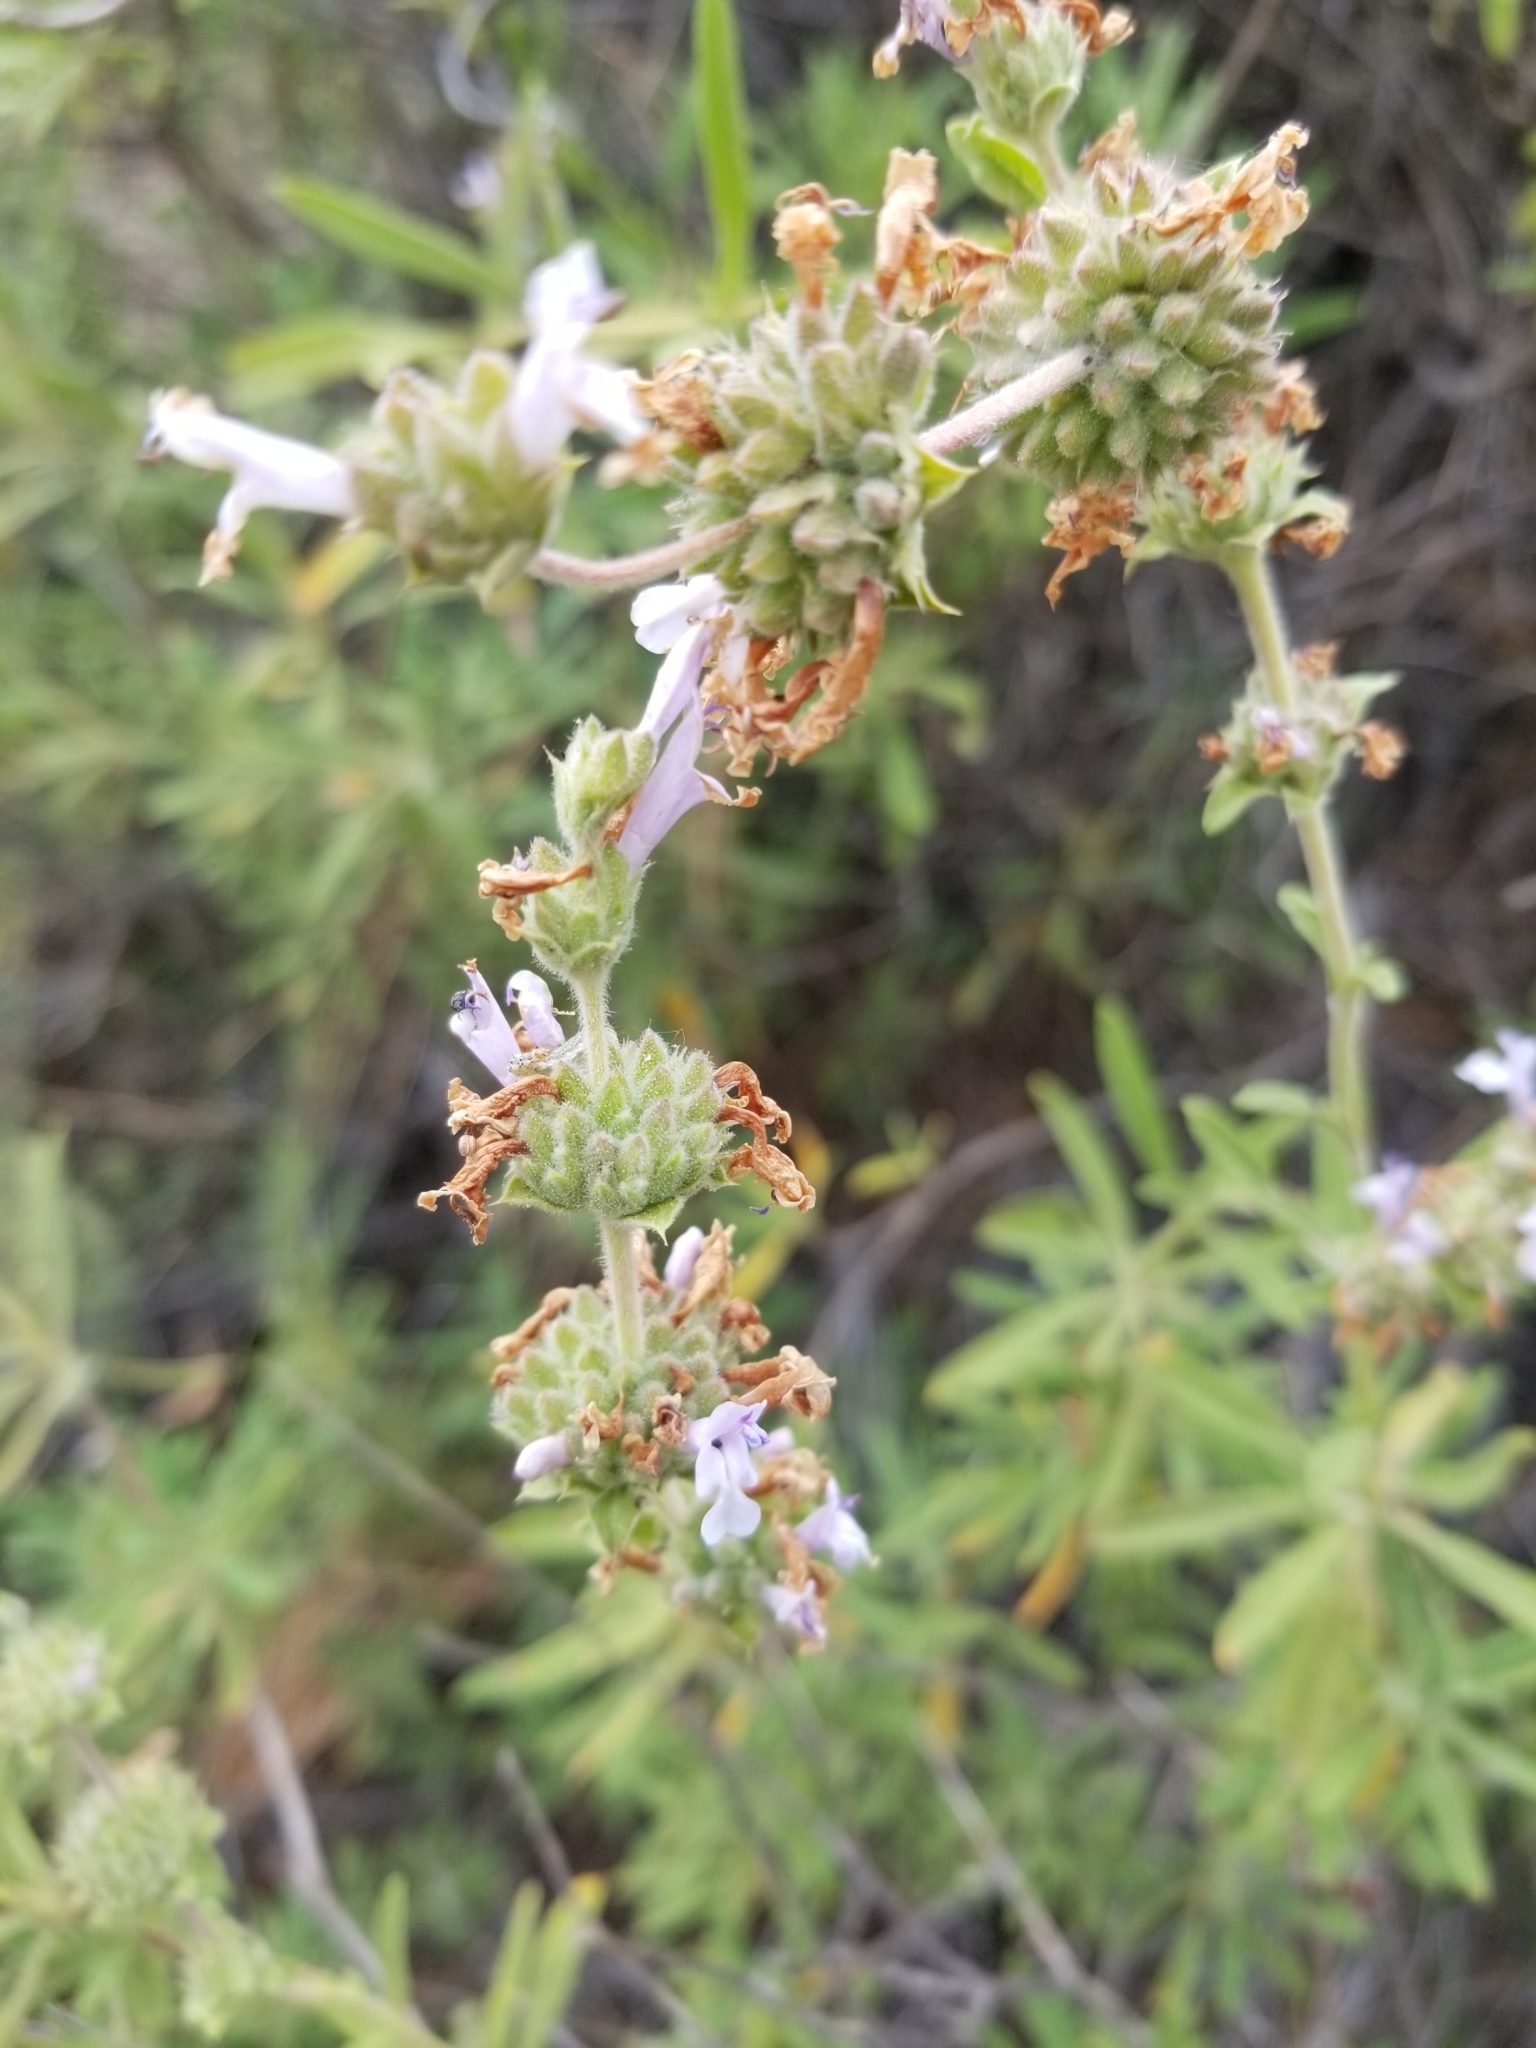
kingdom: Plantae
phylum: Tracheophyta
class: Magnoliopsida
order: Lamiales
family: Lamiaceae
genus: Salvia
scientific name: Salvia mellifera
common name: Black sage
